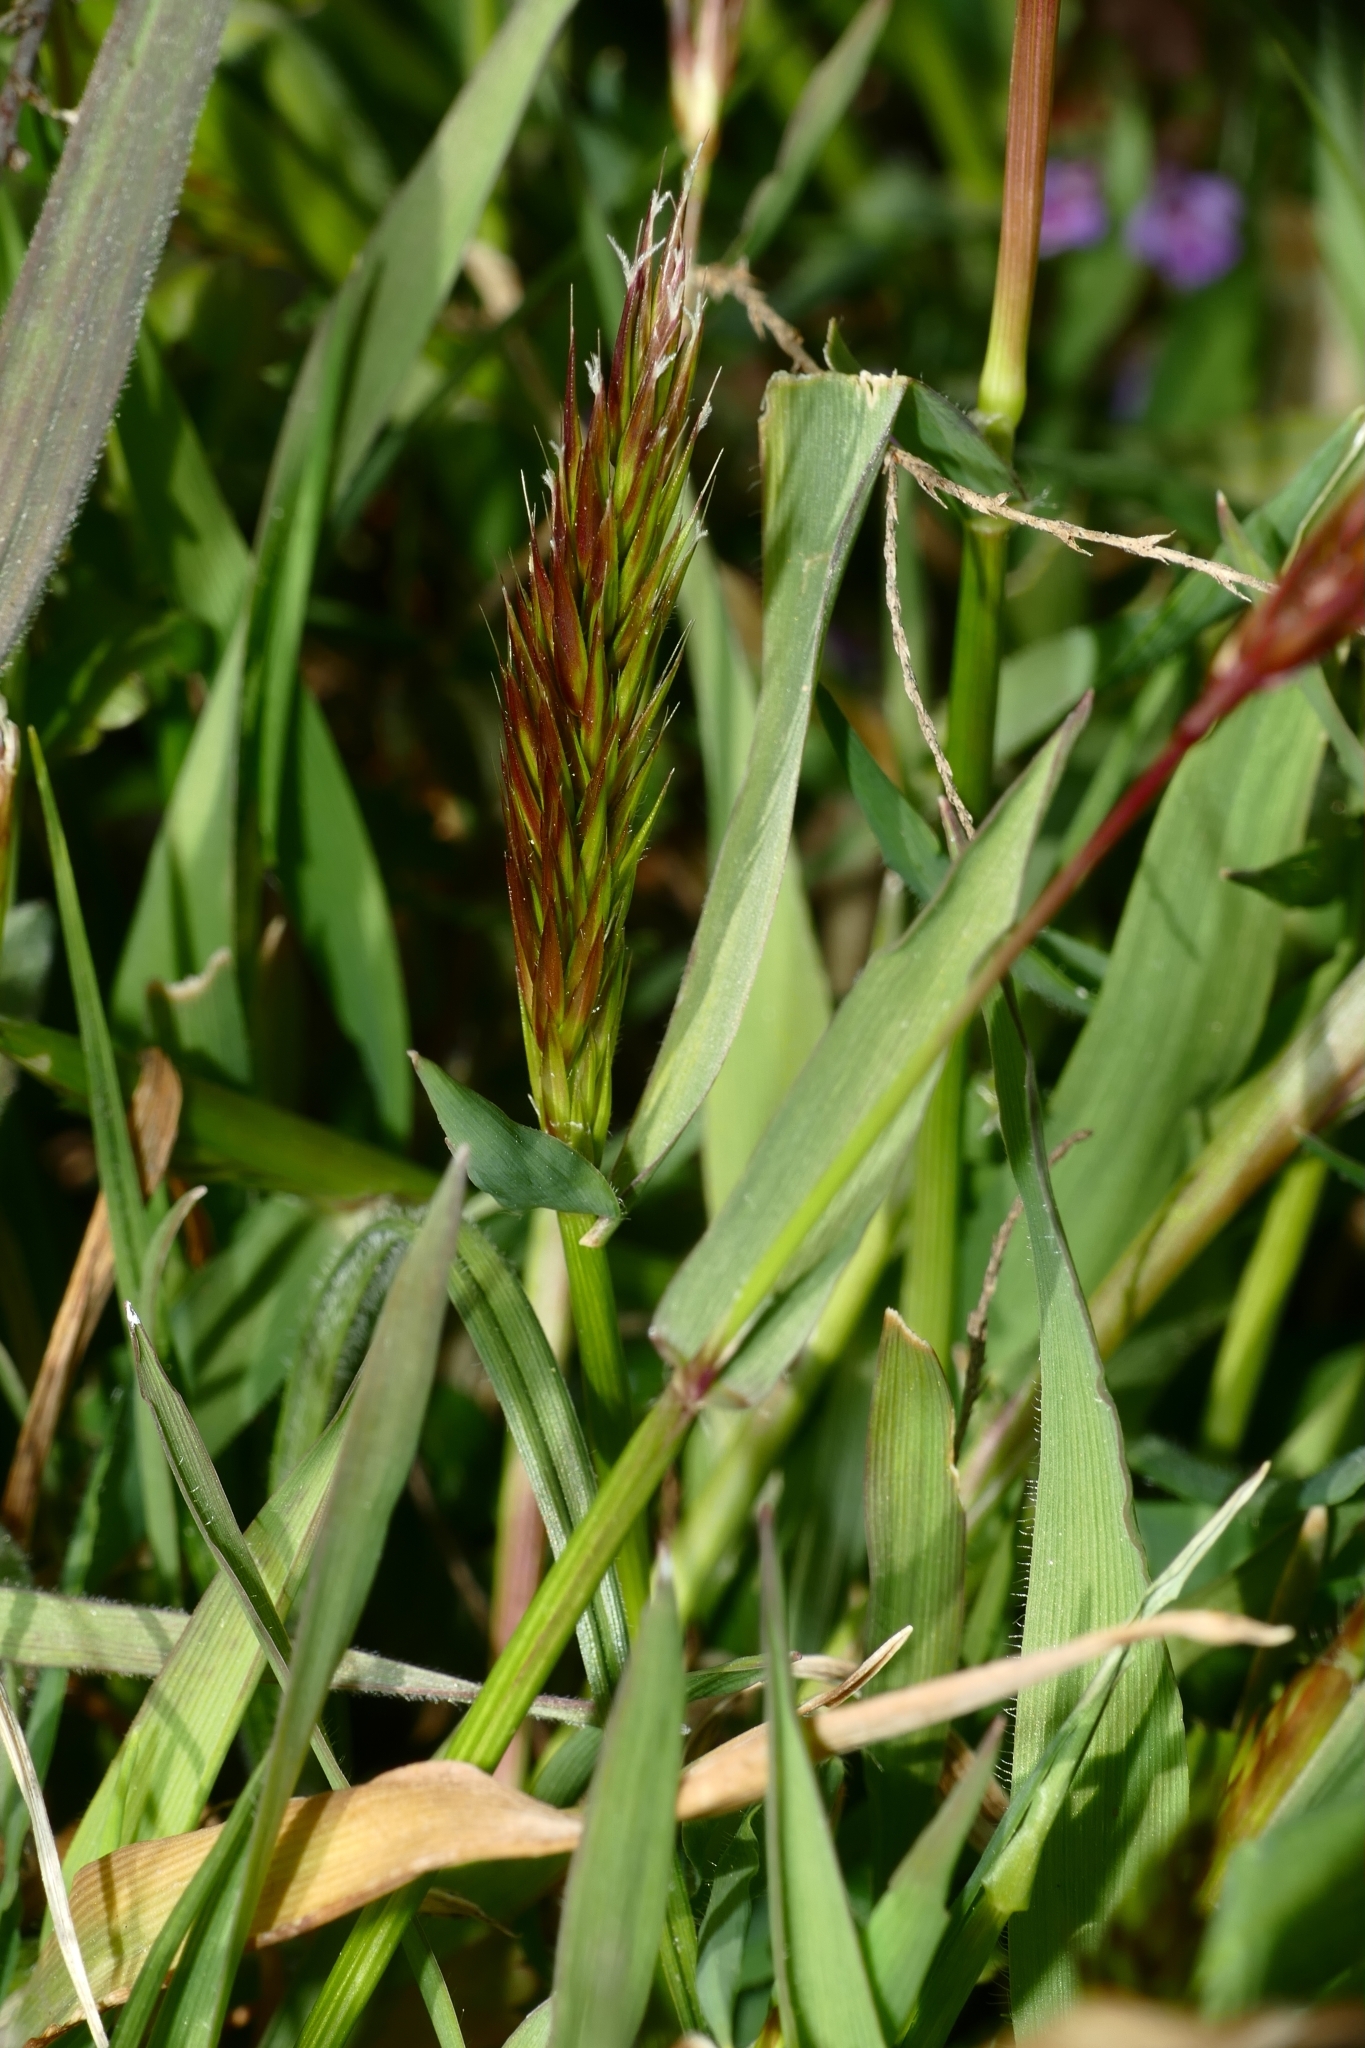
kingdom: Plantae
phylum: Tracheophyta
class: Liliopsida
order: Poales
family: Poaceae
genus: Anthoxanthum
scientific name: Anthoxanthum odoratum
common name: Sweet vernalgrass
